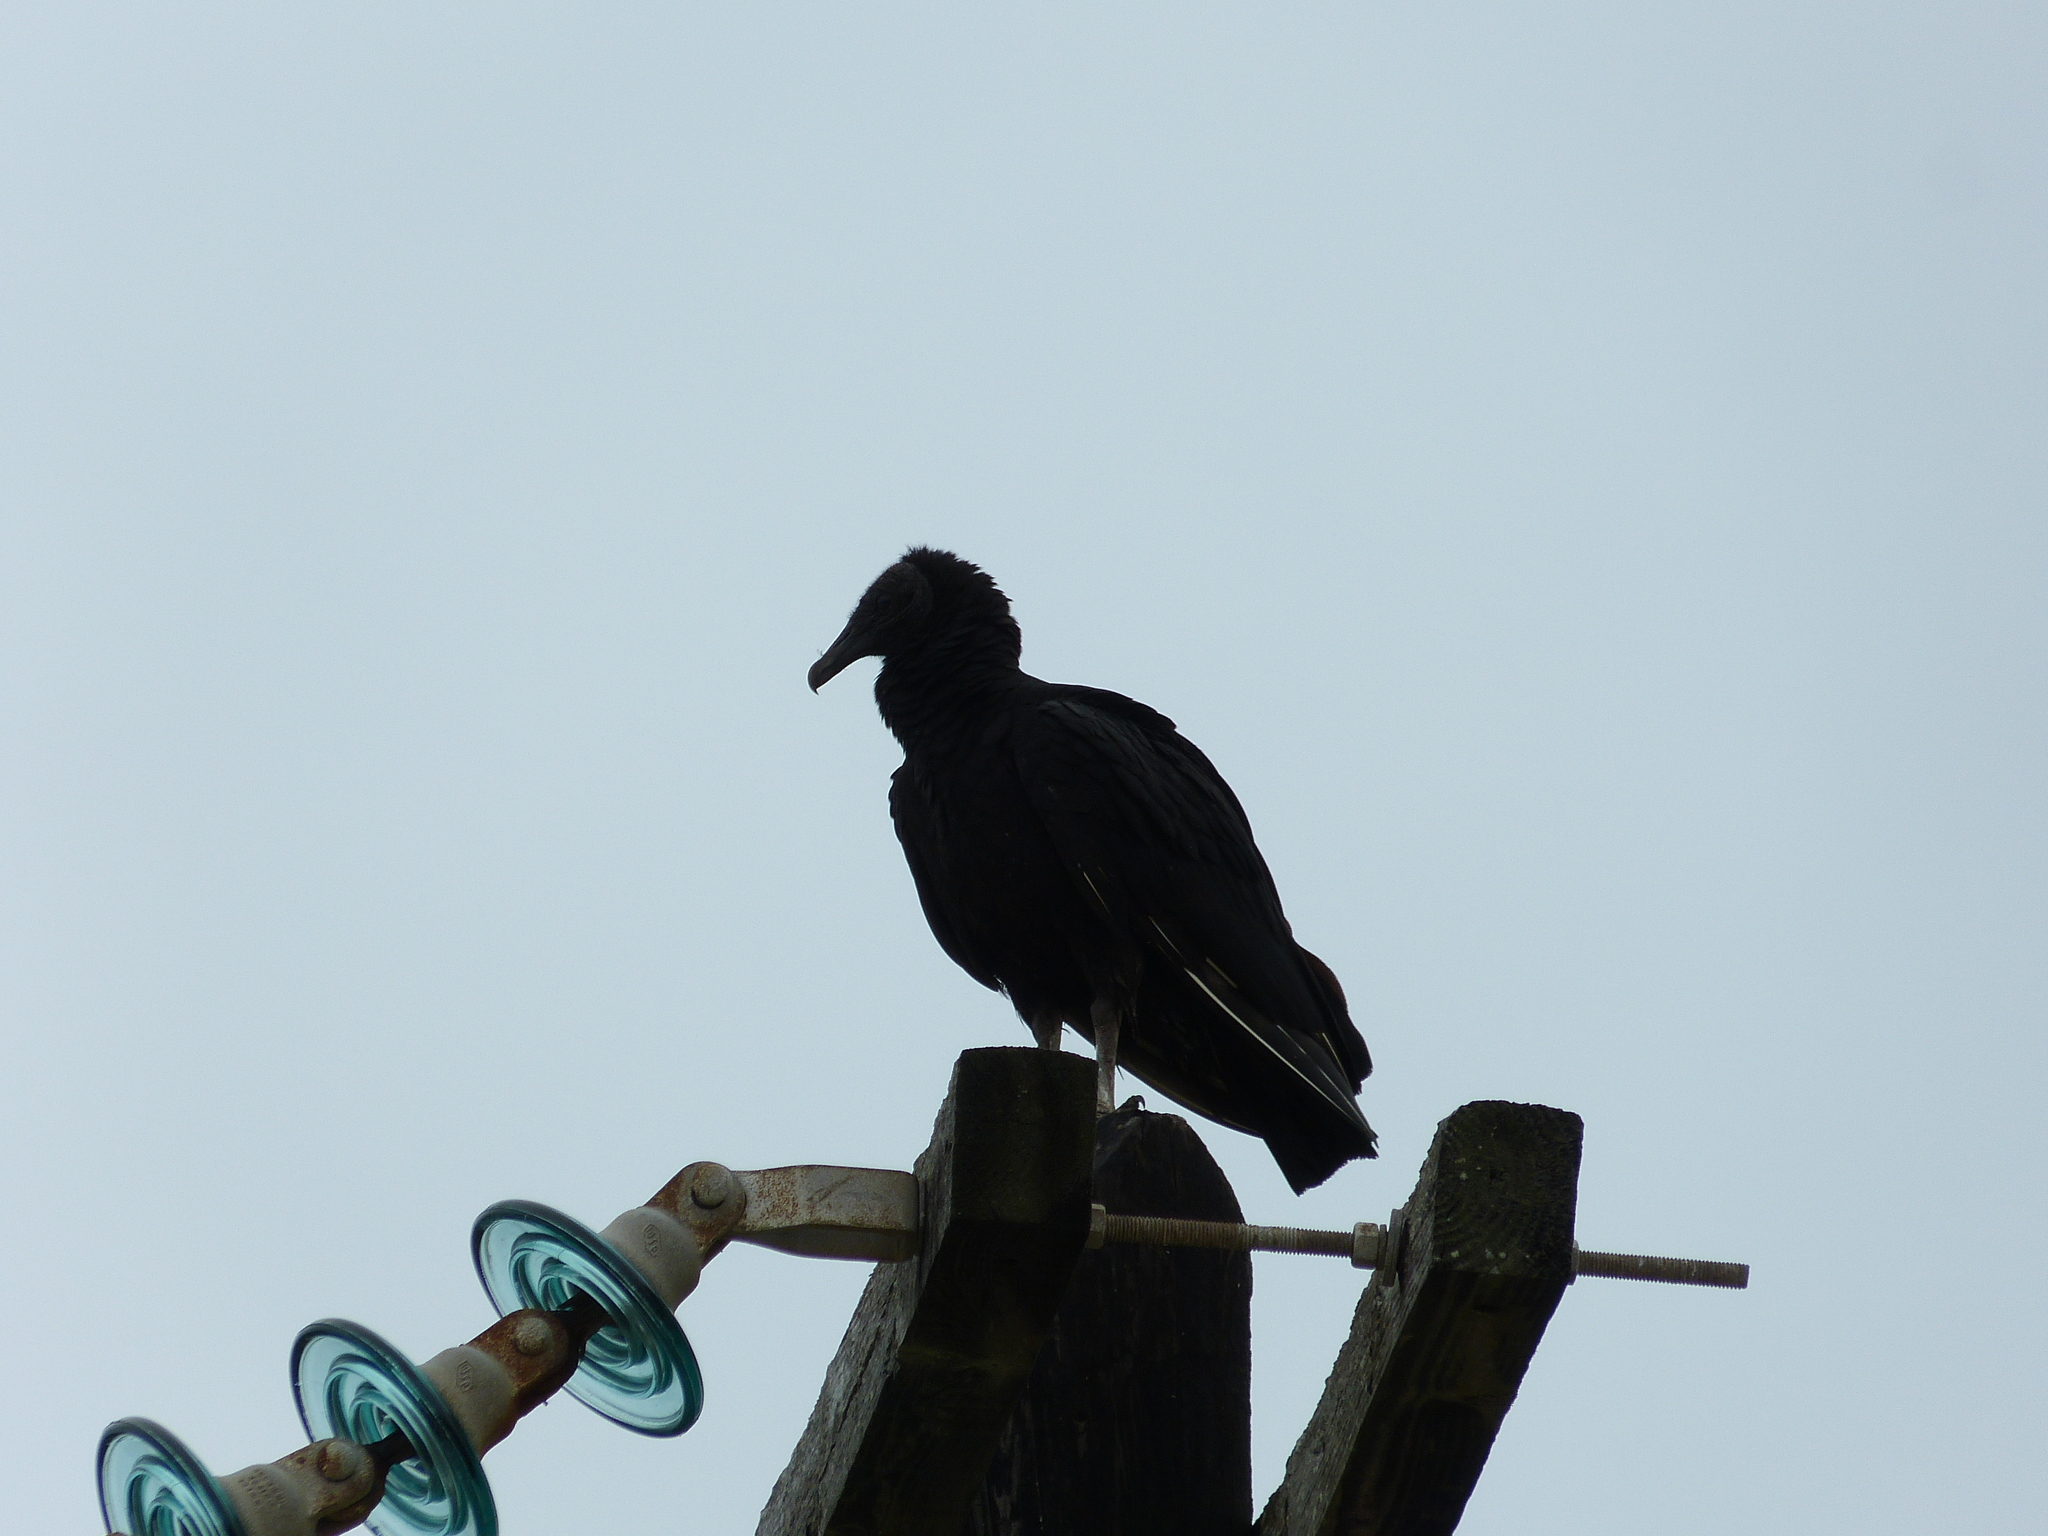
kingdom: Animalia
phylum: Chordata
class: Aves
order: Accipitriformes
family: Cathartidae
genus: Coragyps
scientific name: Coragyps atratus
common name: Black vulture
